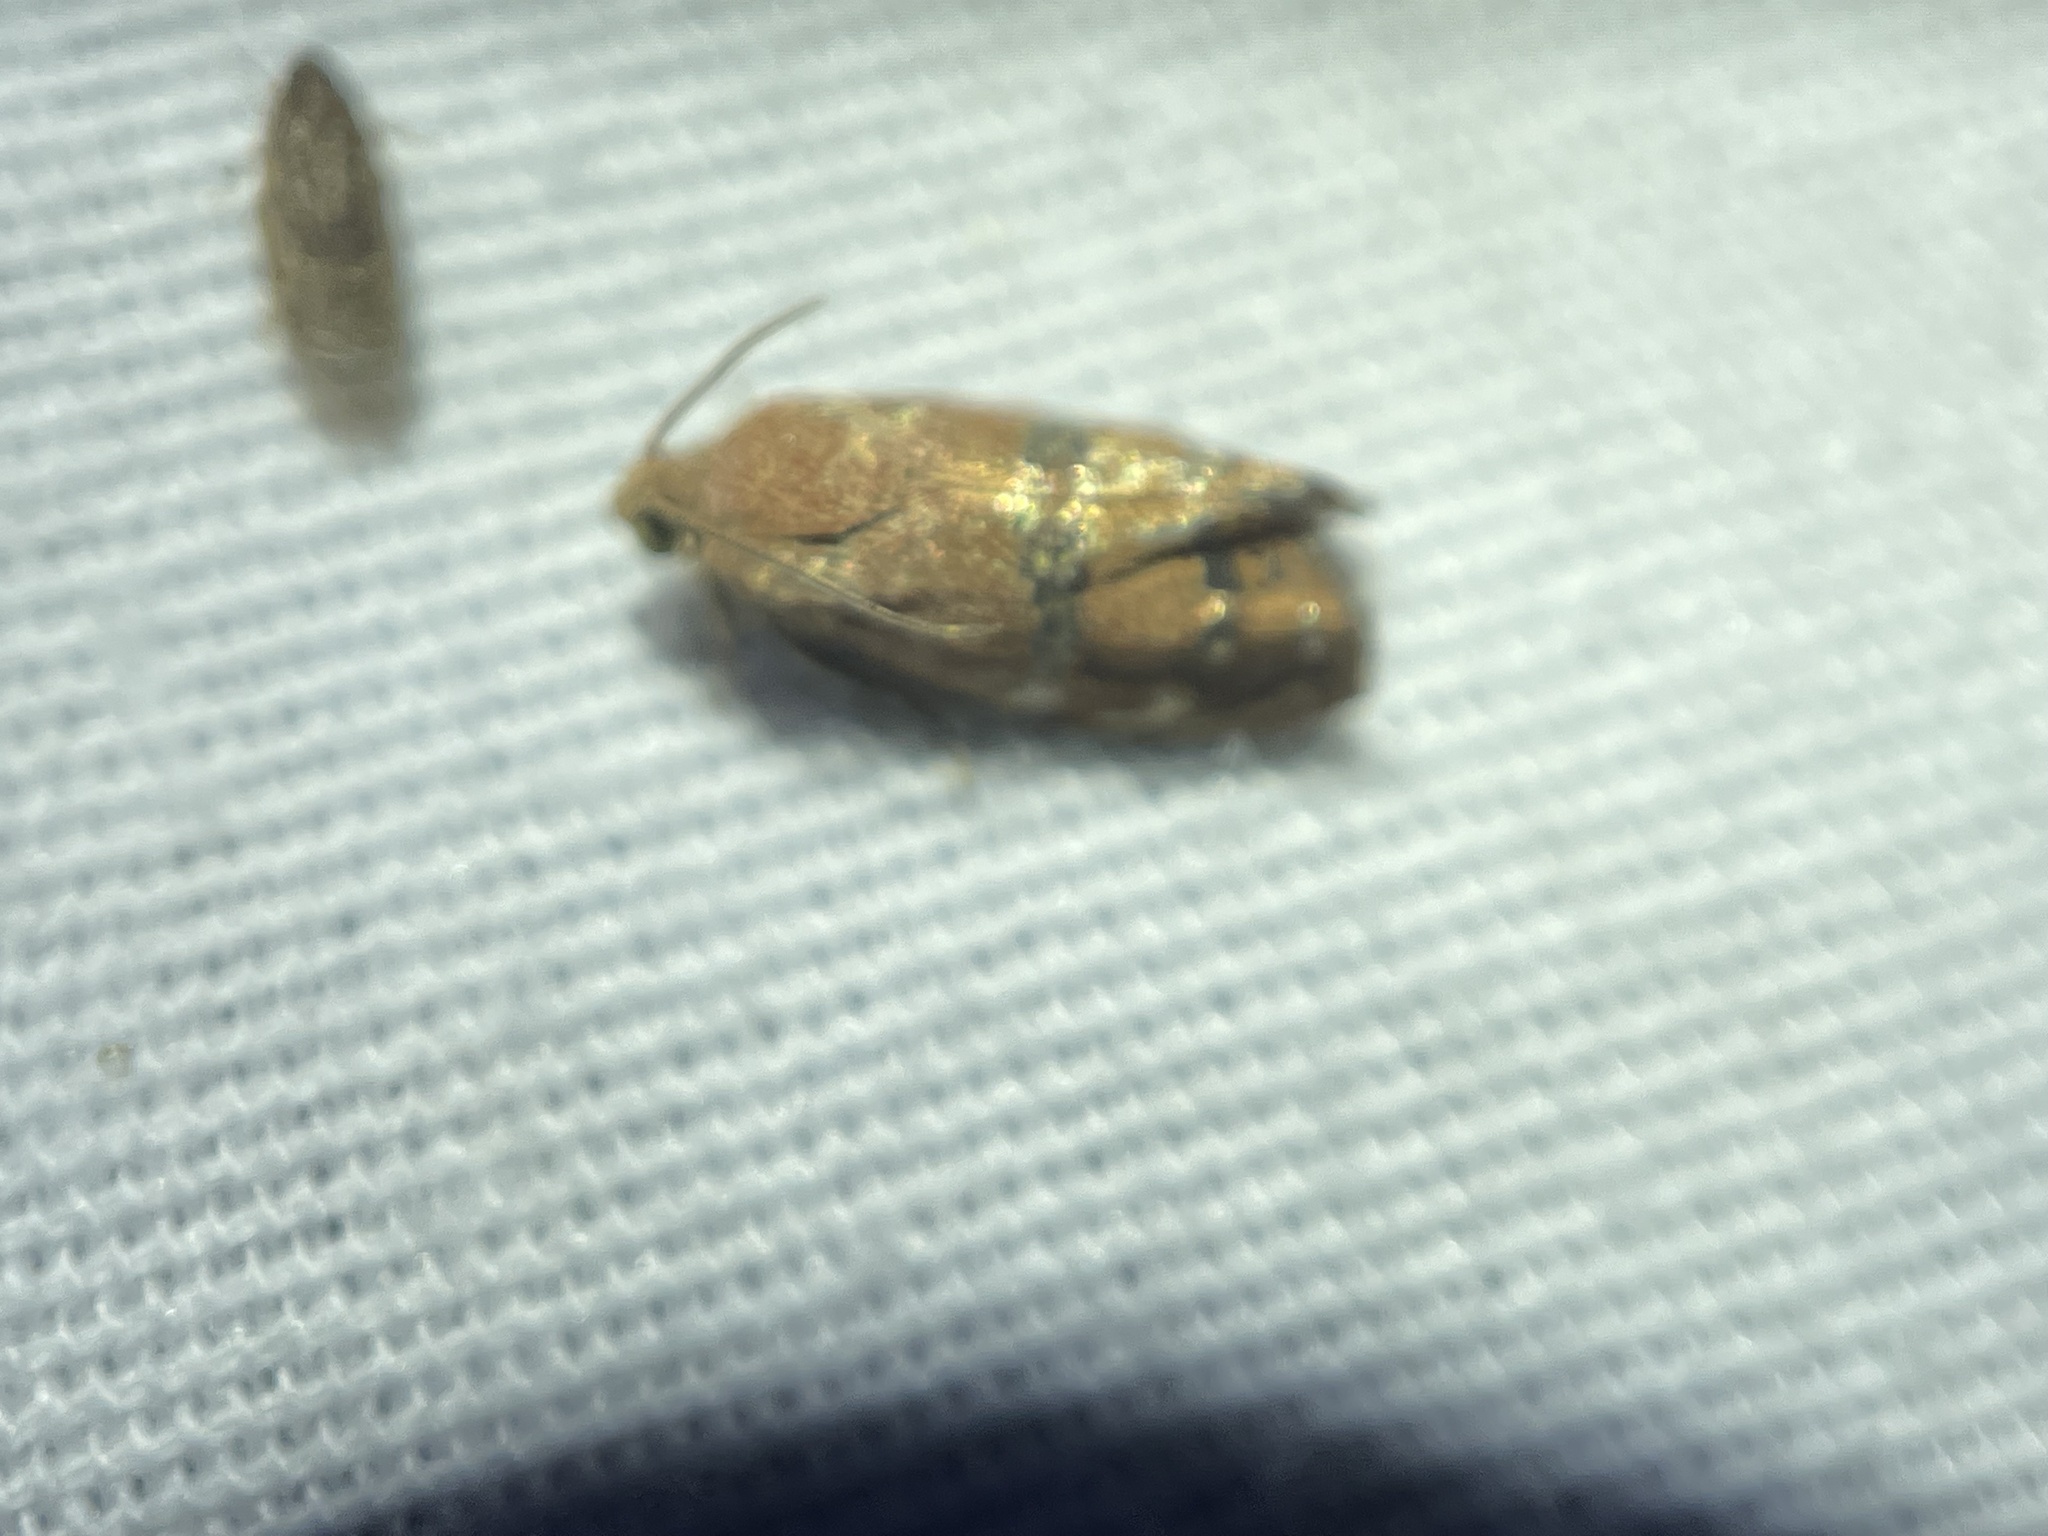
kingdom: Animalia
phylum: Arthropoda
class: Insecta
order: Lepidoptera
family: Tortricidae
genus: Cydia
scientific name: Cydia latiferreana
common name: Filbertworm moth
